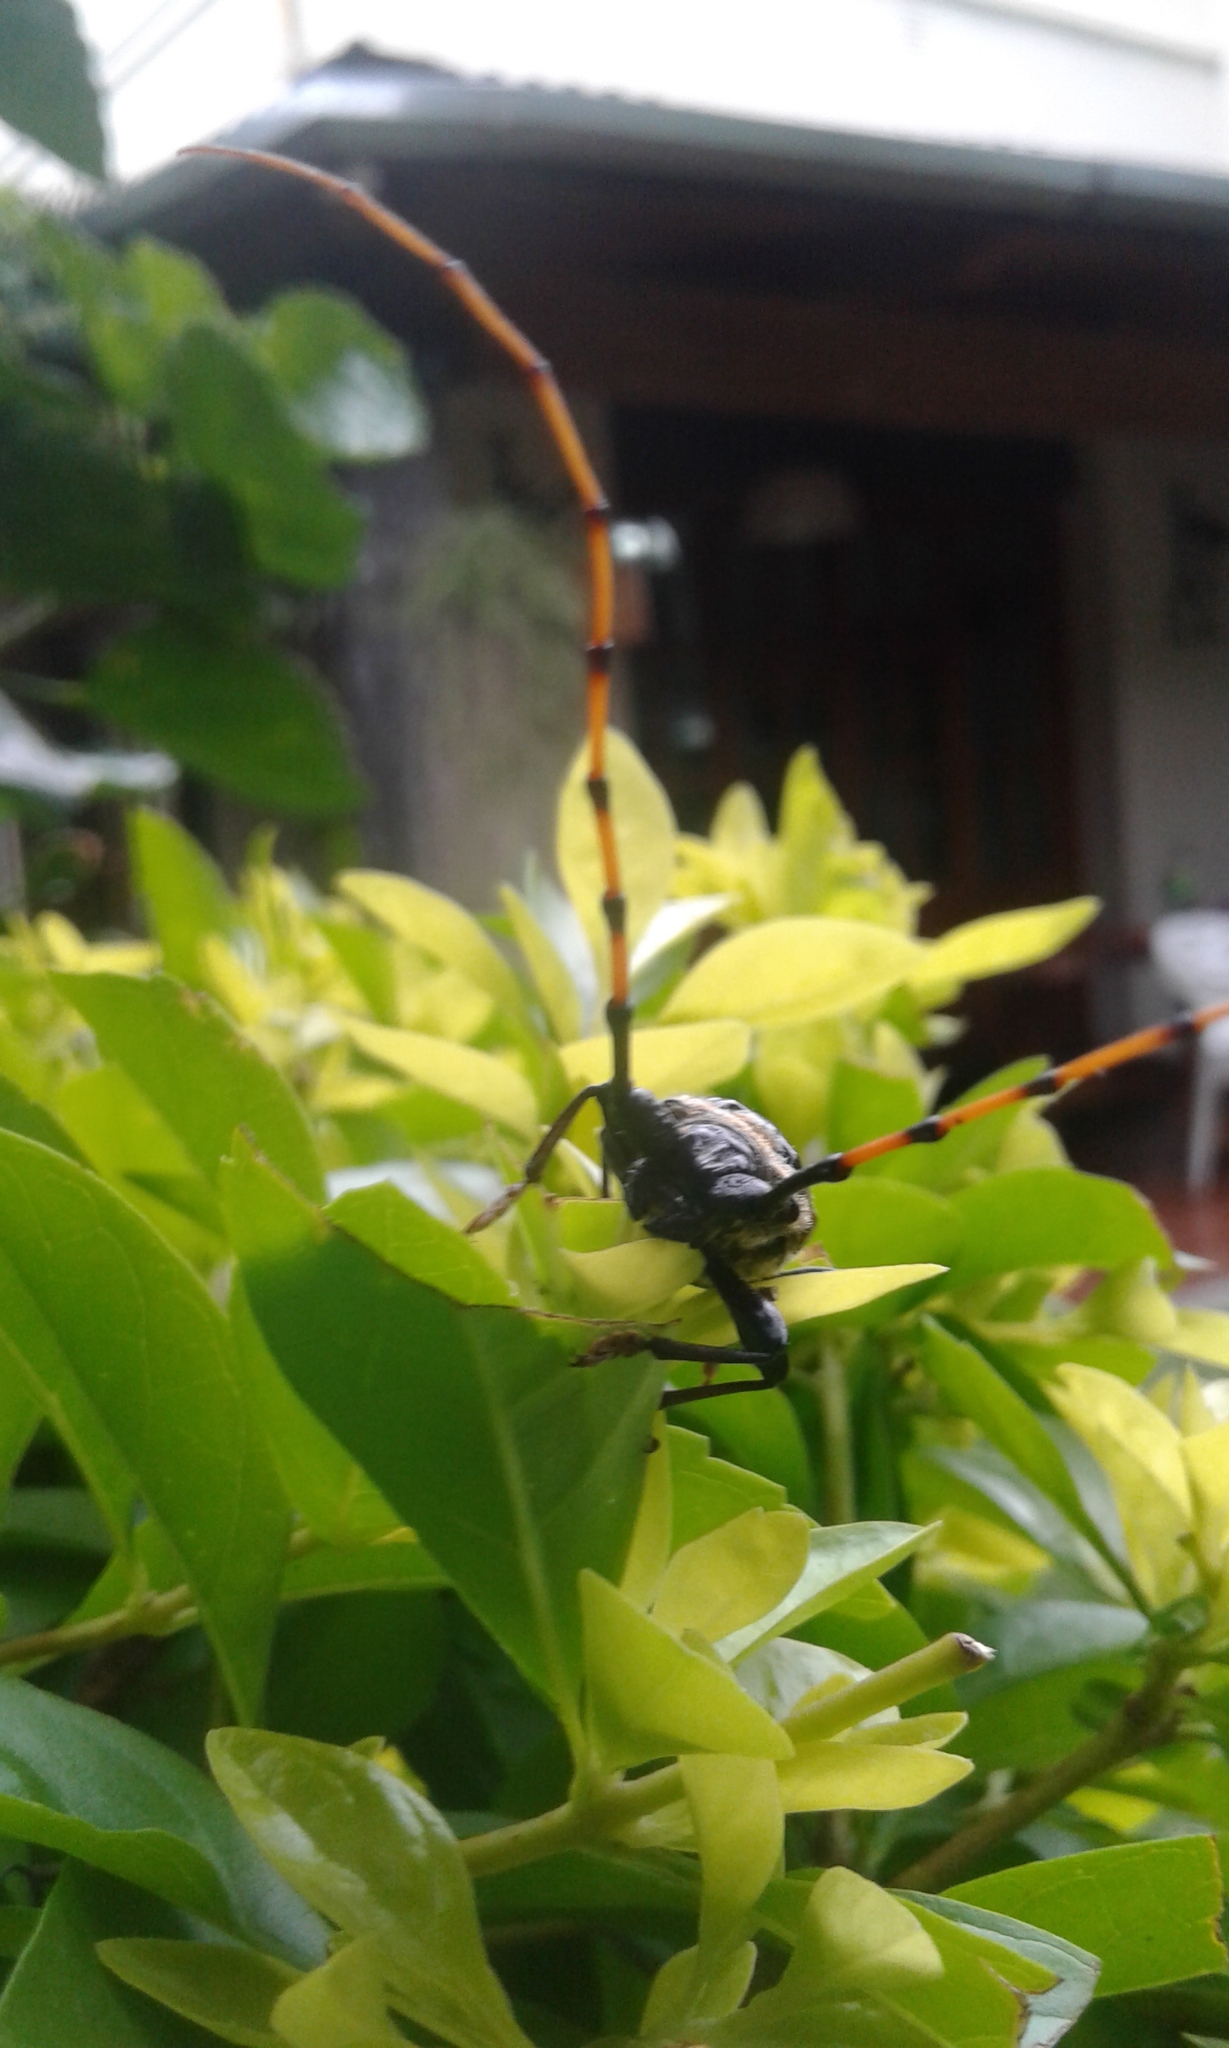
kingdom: Animalia
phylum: Arthropoda
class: Insecta
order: Coleoptera
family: Cerambycidae
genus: Retrachydes
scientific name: Retrachydes thoracicus
